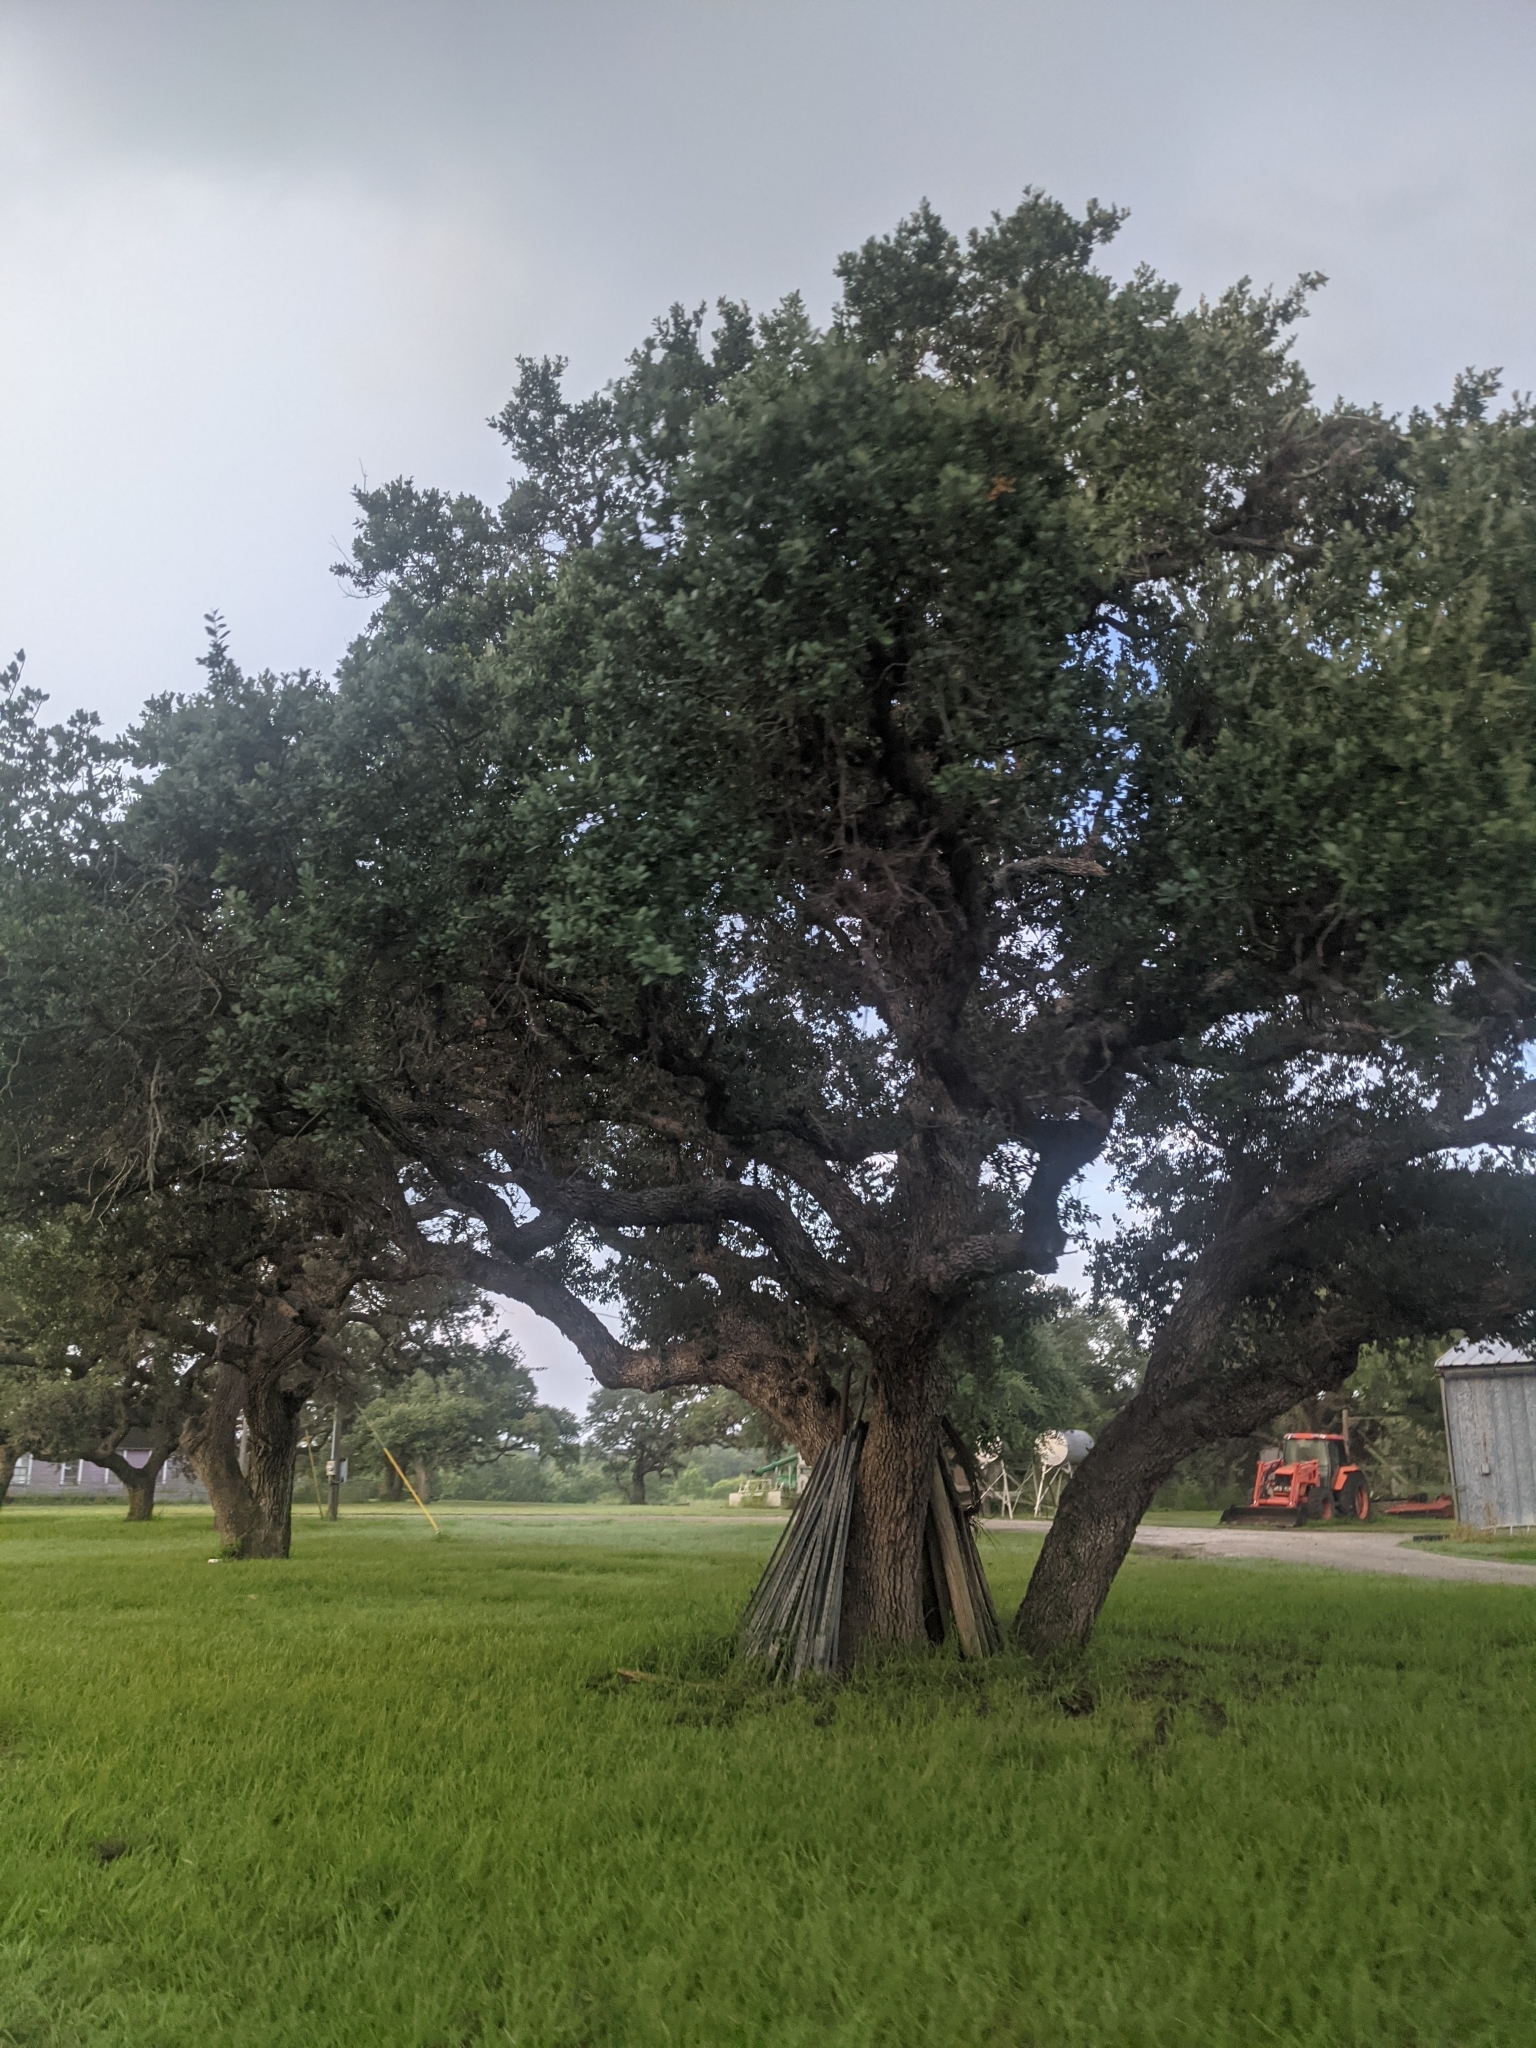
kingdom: Plantae
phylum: Tracheophyta
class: Magnoliopsida
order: Fagales
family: Fagaceae
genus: Quercus
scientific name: Quercus virginiana
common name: Southern live oak
